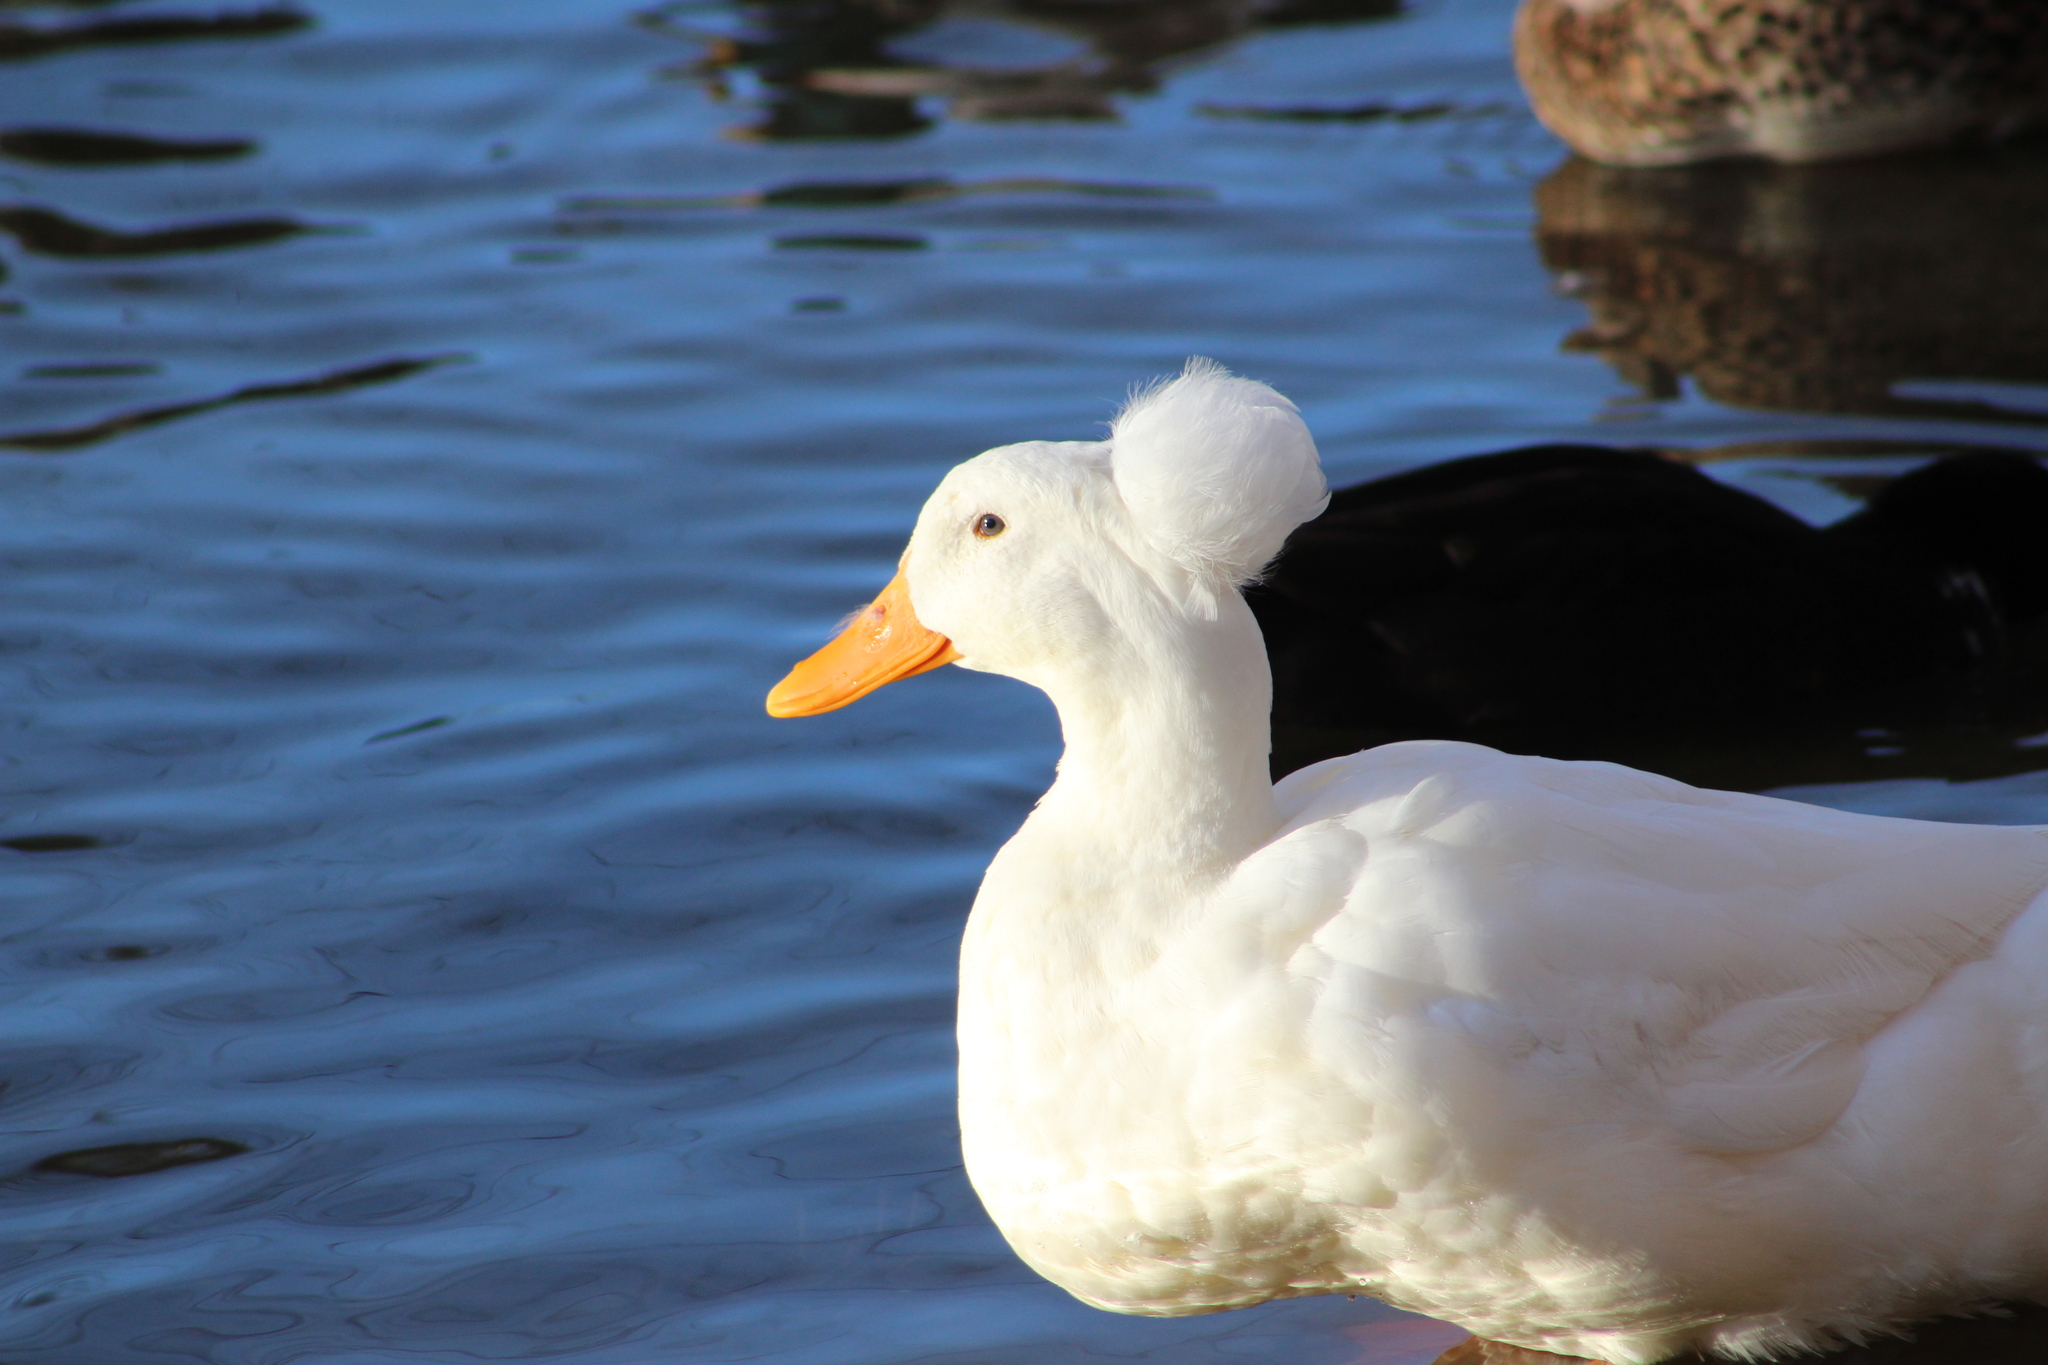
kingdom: Animalia
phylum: Chordata
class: Aves
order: Anseriformes
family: Anatidae
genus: Anas
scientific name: Anas platyrhynchos
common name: Mallard
